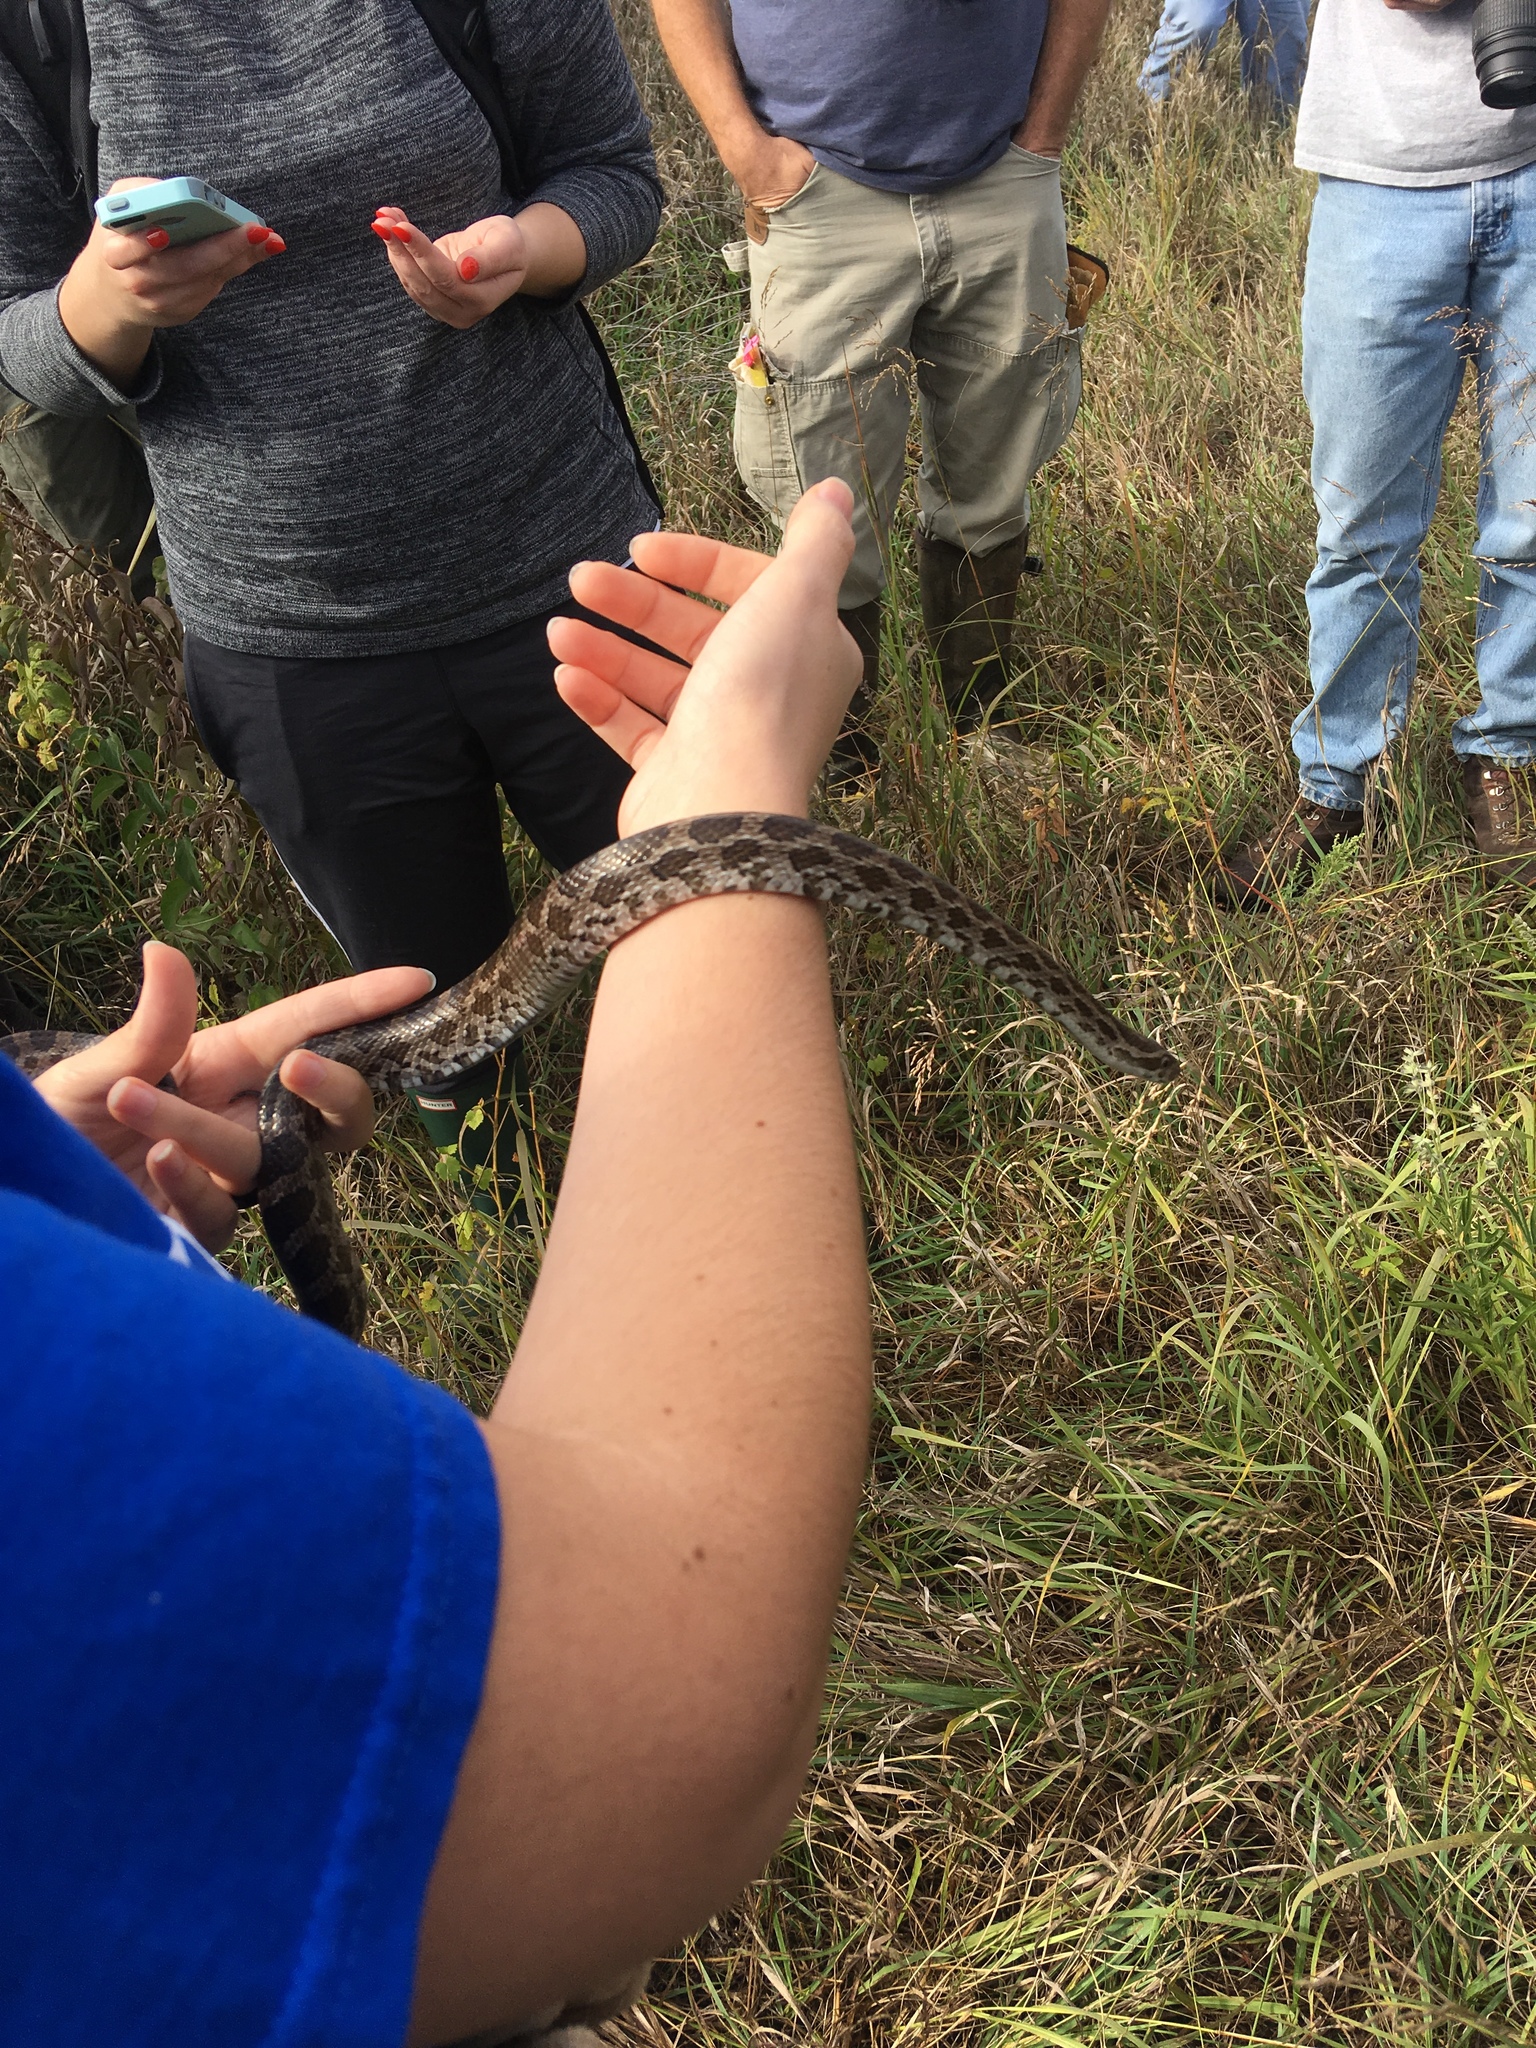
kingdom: Animalia
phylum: Chordata
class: Squamata
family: Colubridae
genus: Pantherophis
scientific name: Pantherophis emoryi
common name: Great plains rat snake
